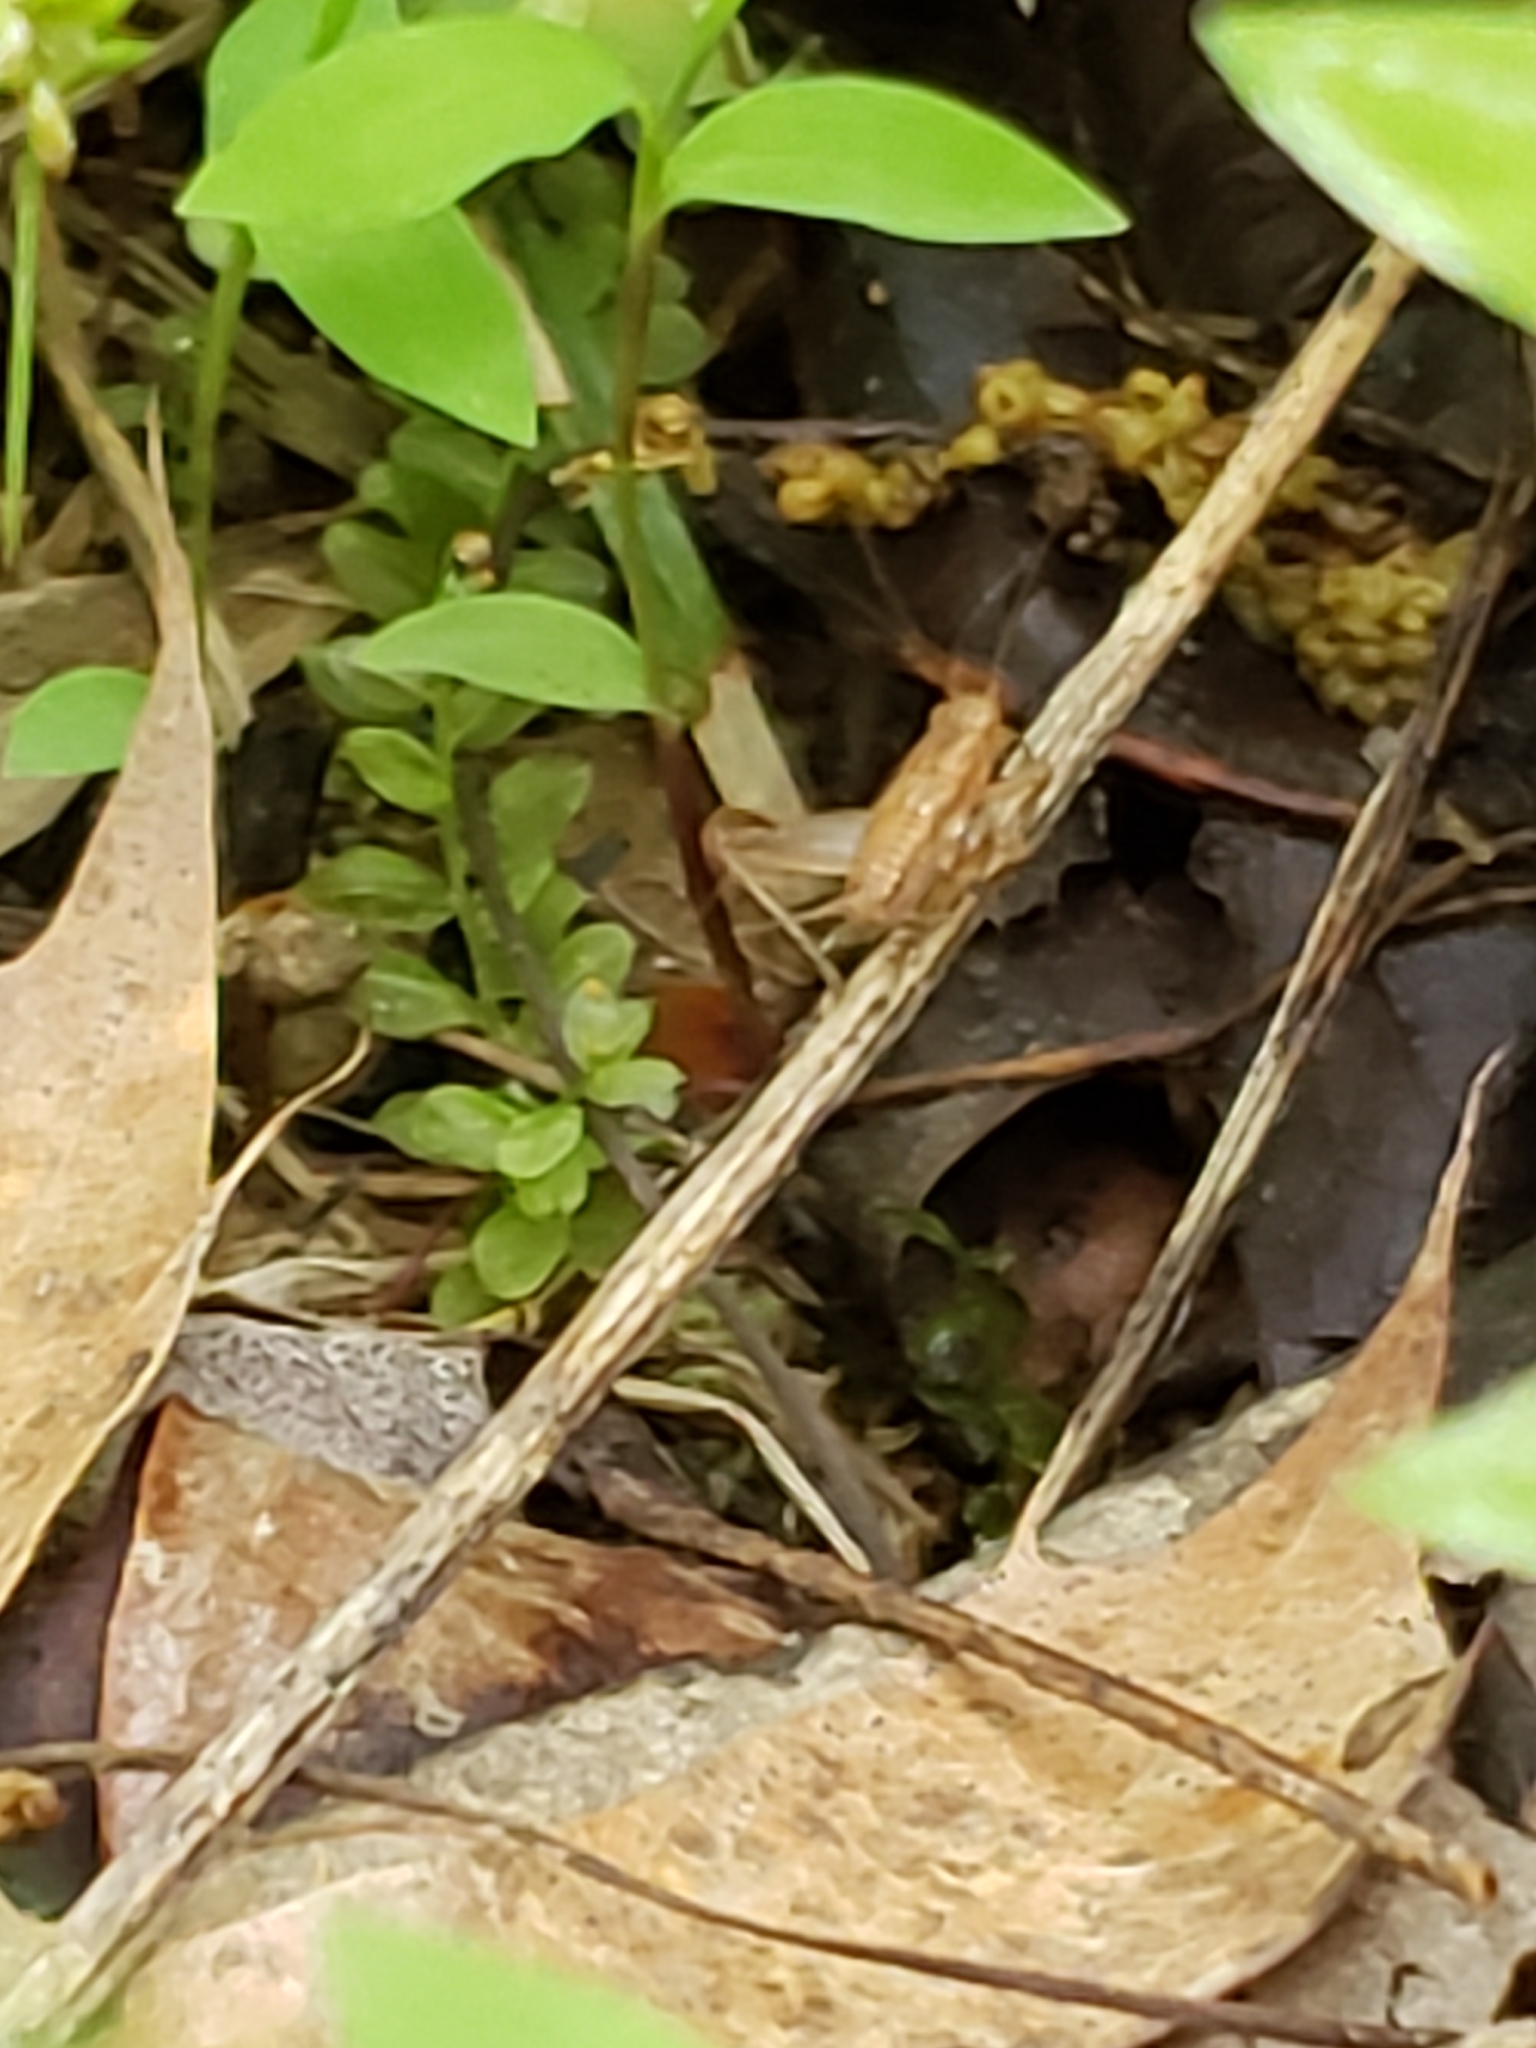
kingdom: Animalia
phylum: Arthropoda
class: Insecta
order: Orthoptera
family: Trigonidiidae
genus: Falcicula
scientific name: Falcicula hebardi
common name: Hebard's bush cricket
